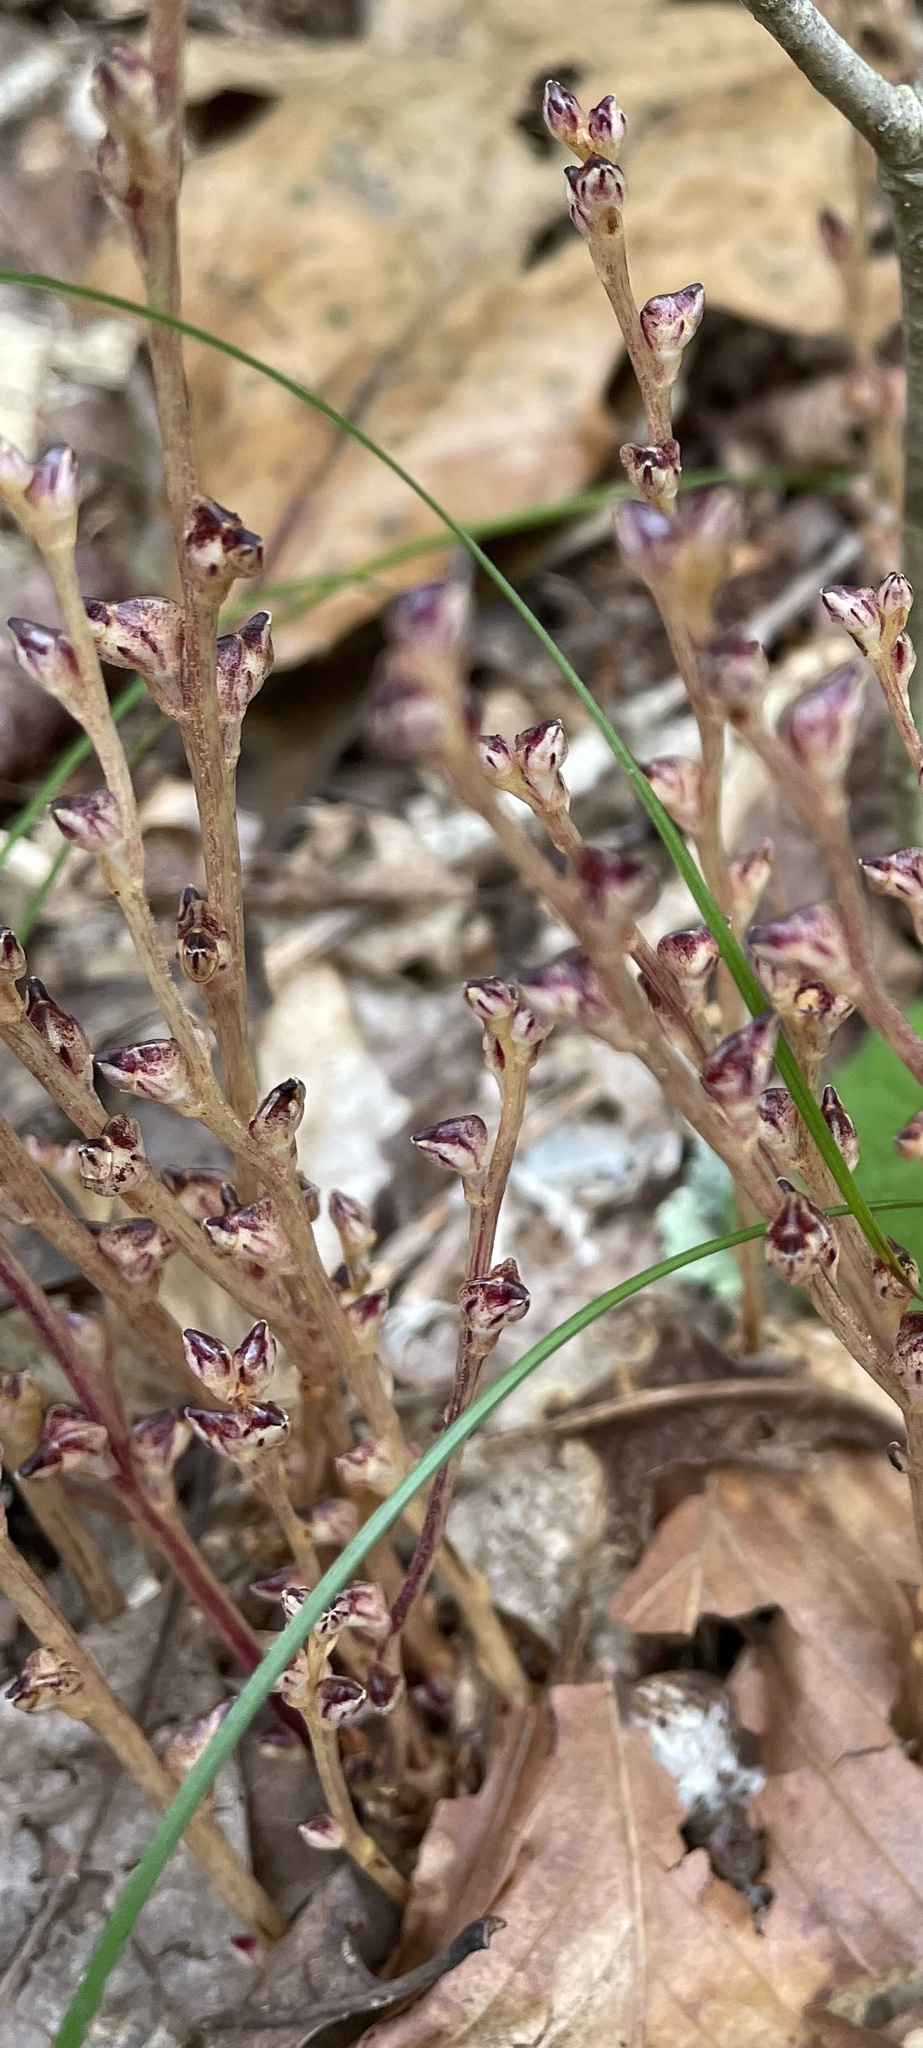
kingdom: Plantae
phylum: Tracheophyta
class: Magnoliopsida
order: Lamiales
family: Orobanchaceae
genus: Epifagus
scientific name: Epifagus virginiana
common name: Beechdrops
